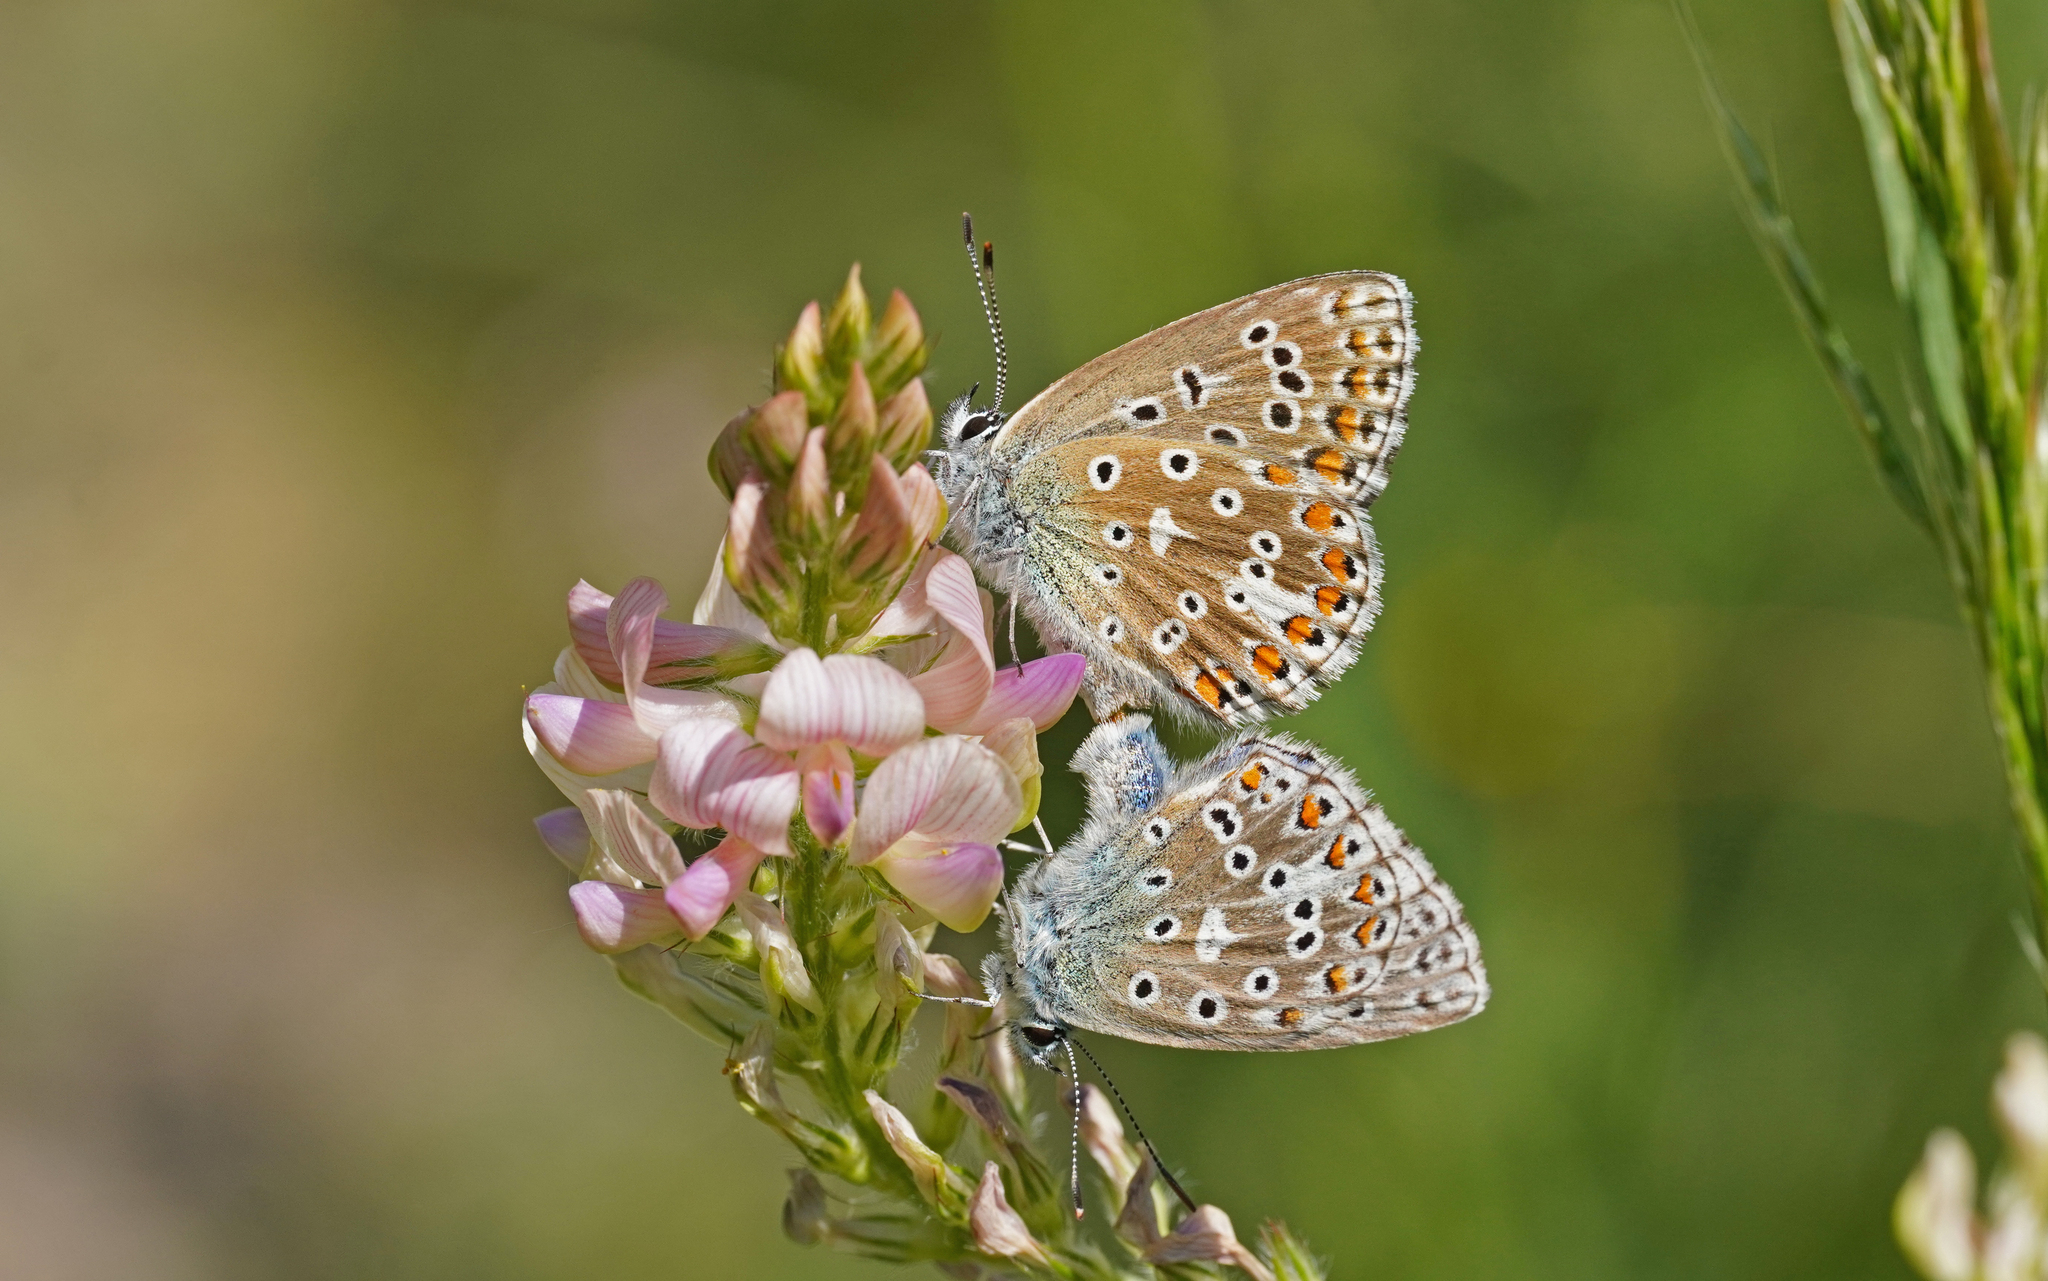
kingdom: Animalia
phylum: Arthropoda
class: Insecta
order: Lepidoptera
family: Lycaenidae
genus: Lysandra
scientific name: Lysandra bellargus
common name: Adonis blue
